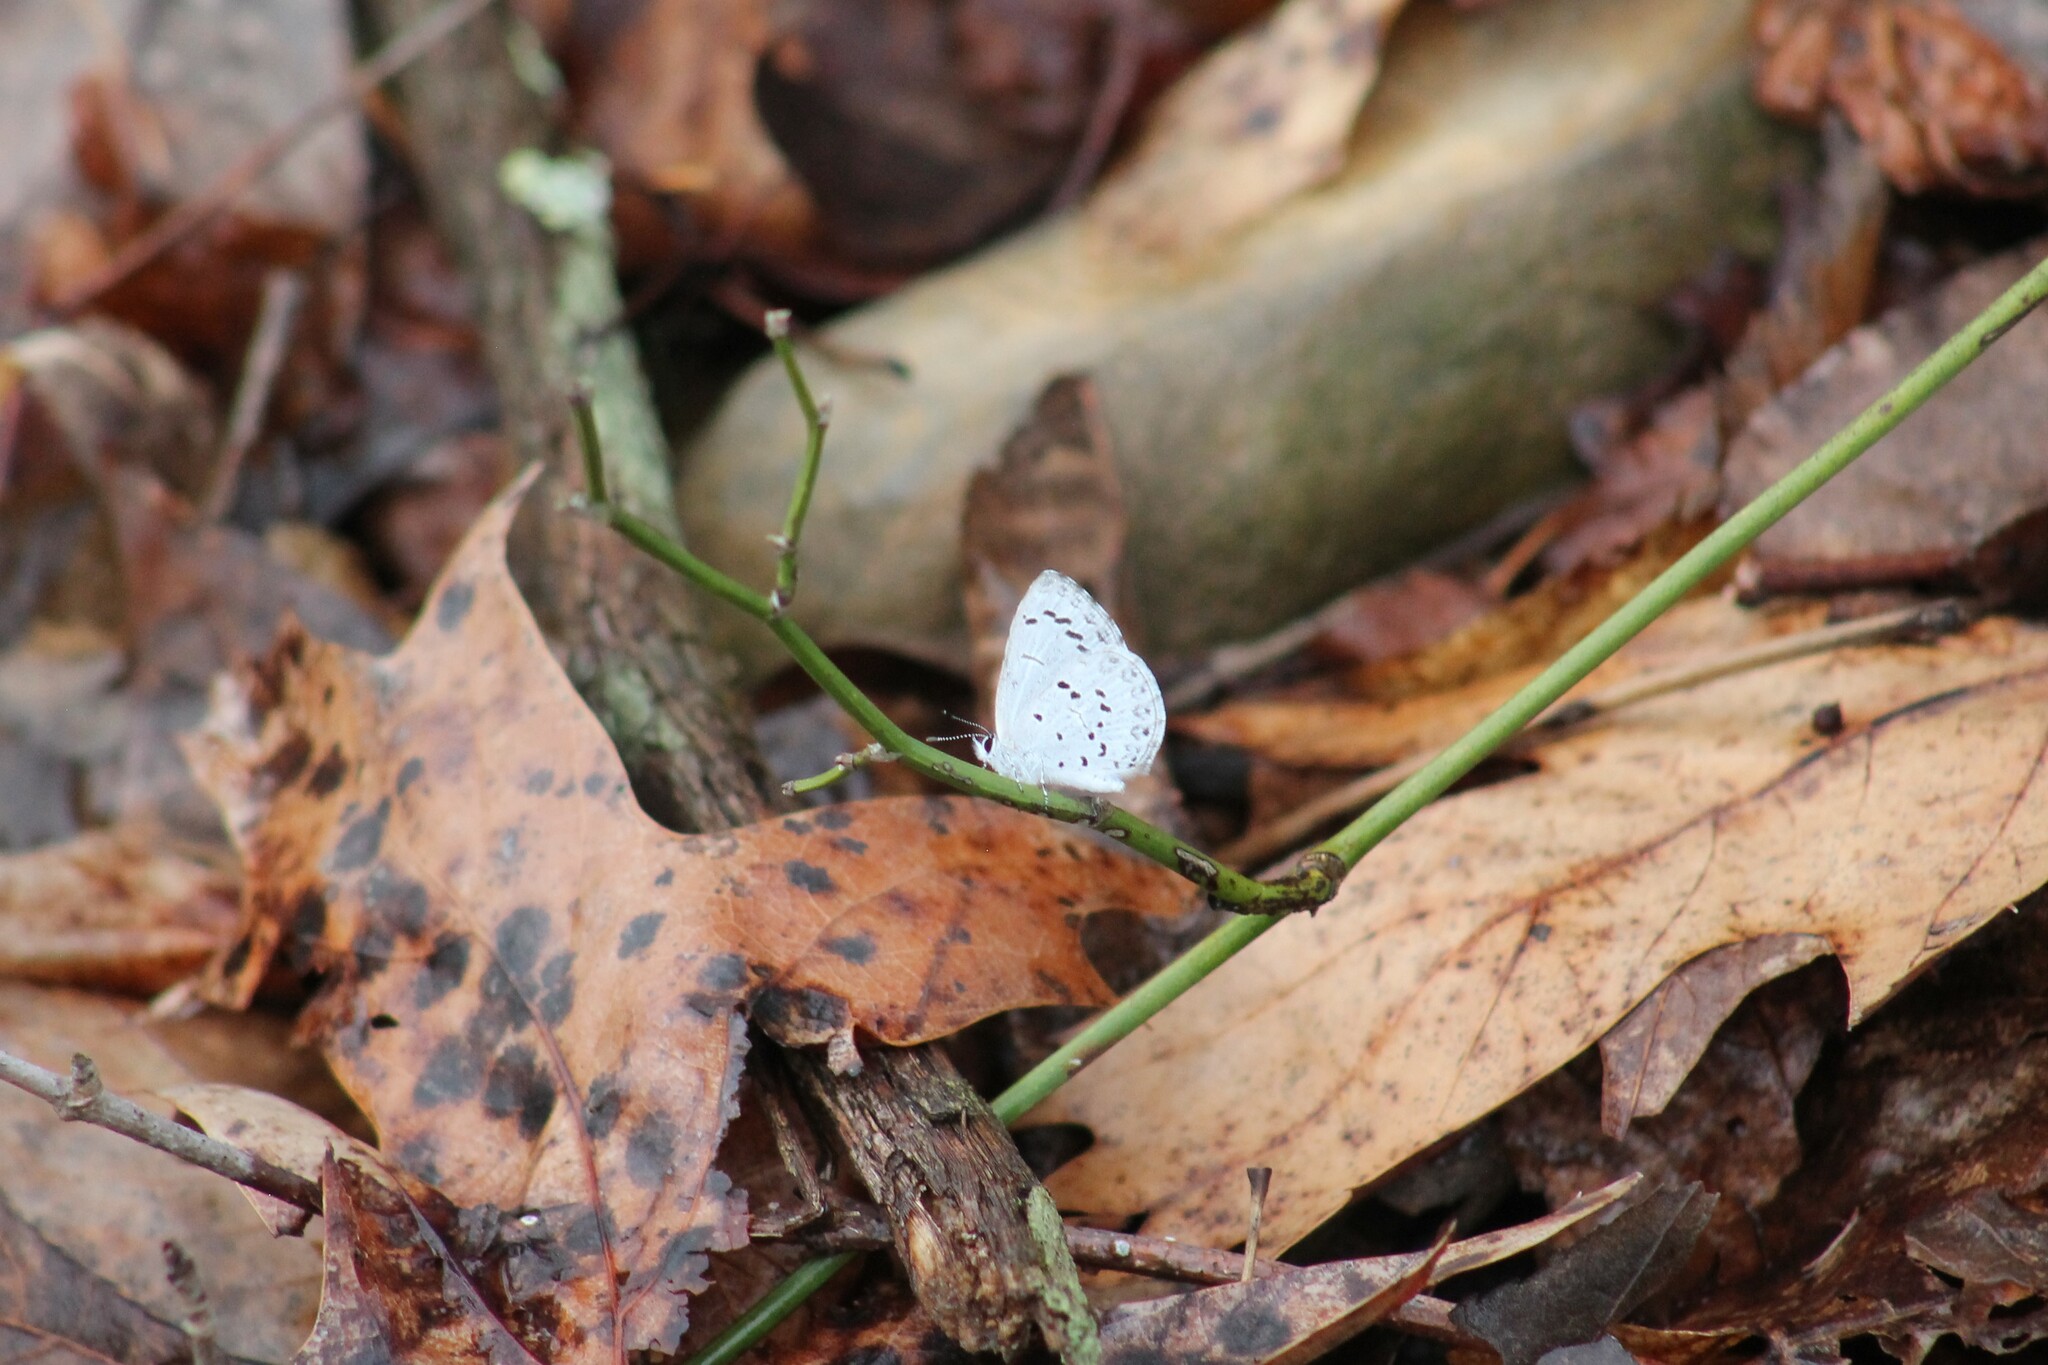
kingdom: Animalia
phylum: Arthropoda
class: Insecta
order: Lepidoptera
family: Lycaenidae
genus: Celastrina
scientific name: Celastrina ladon
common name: Spring azure
